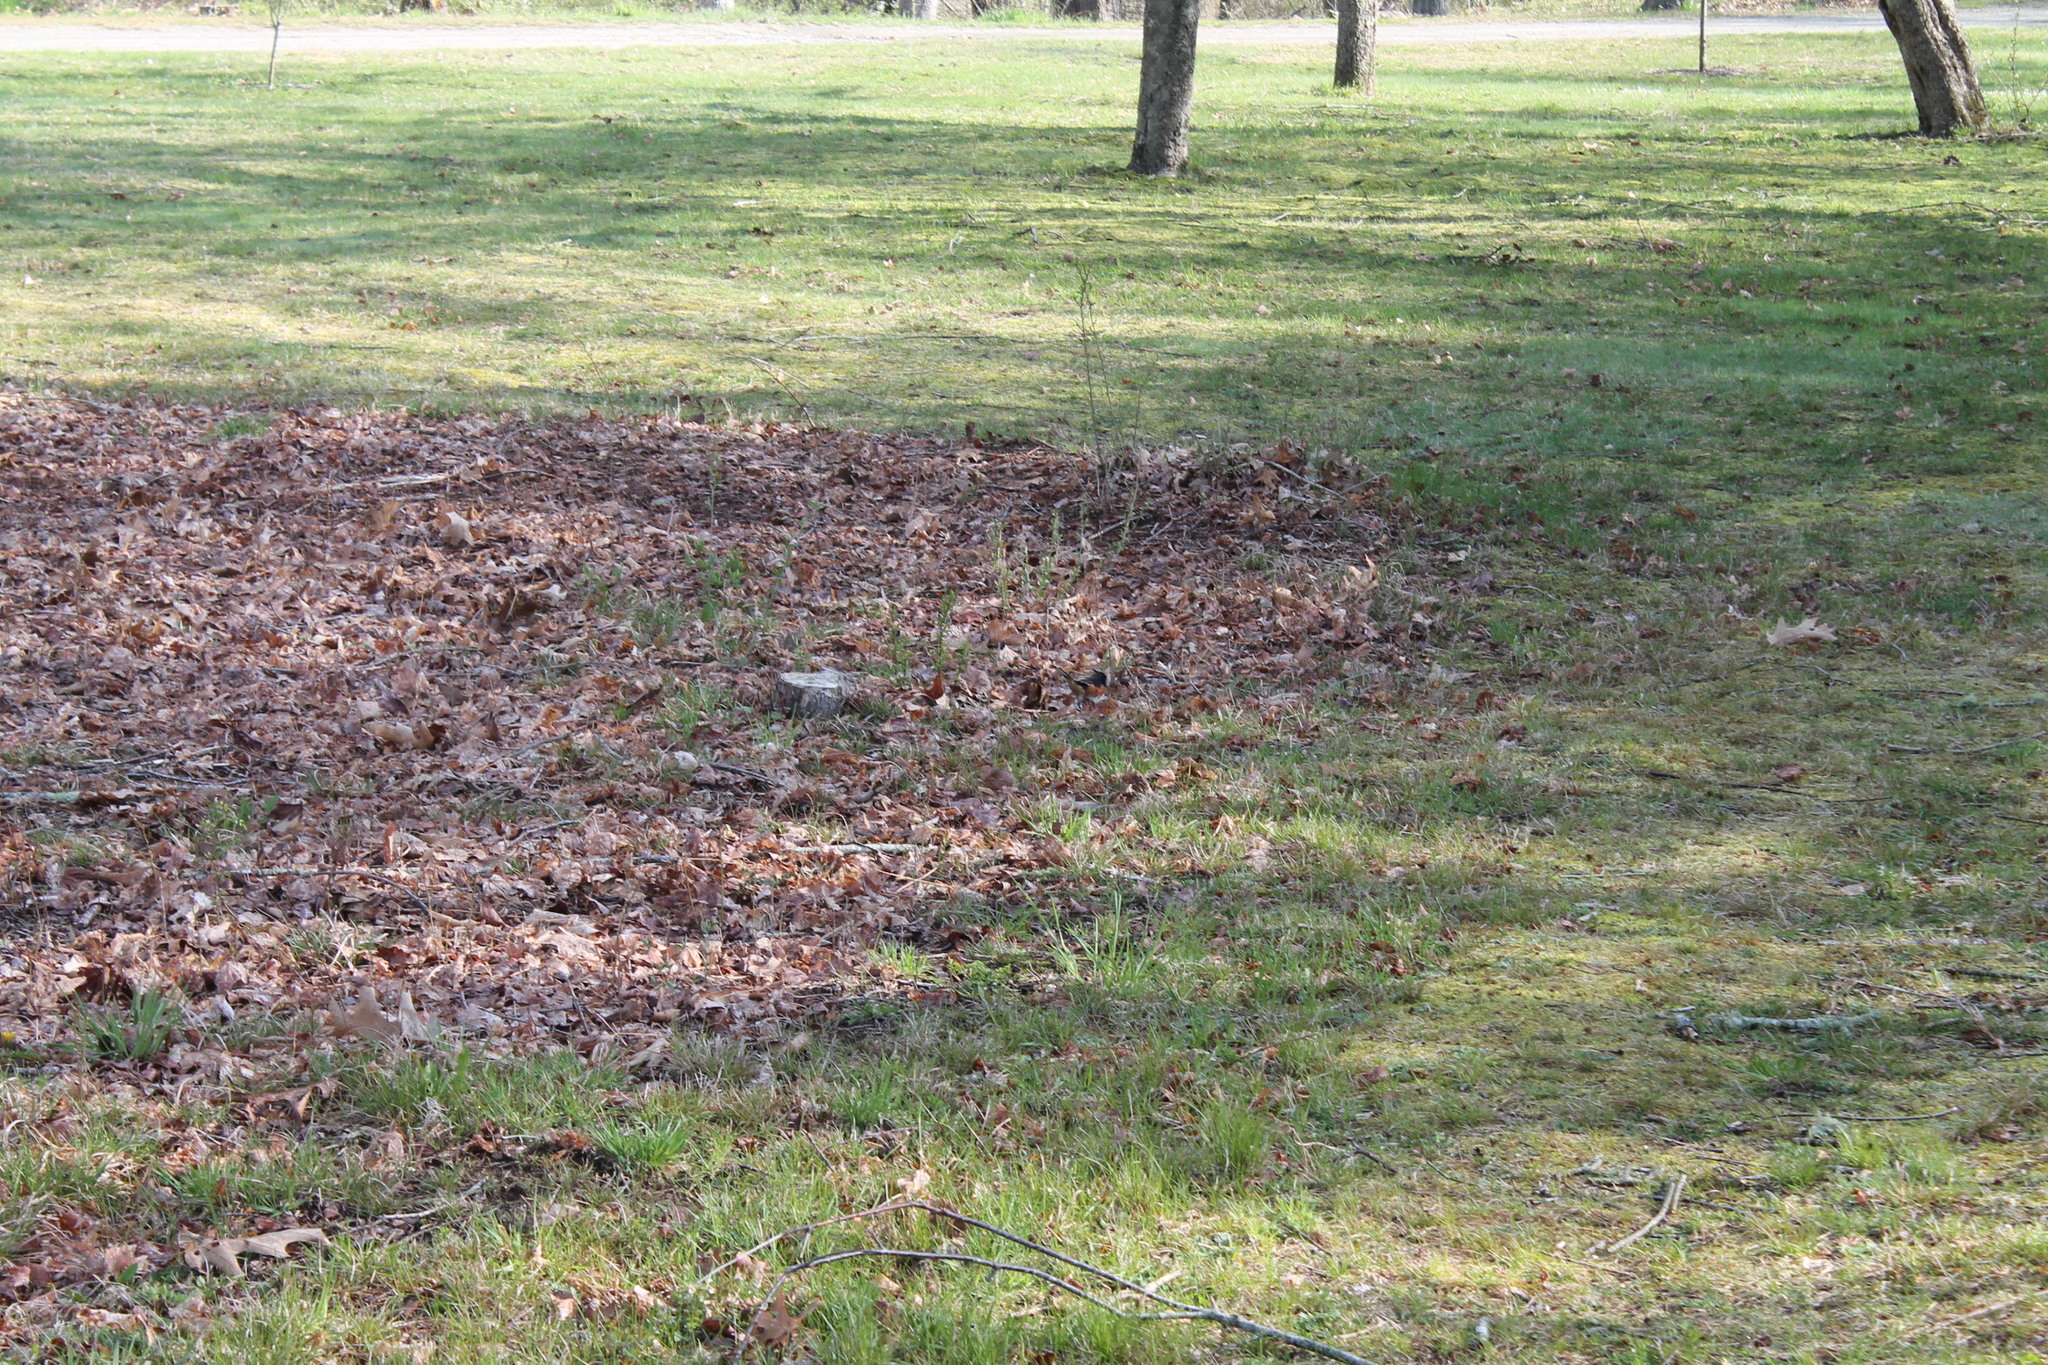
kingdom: Animalia
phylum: Chordata
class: Aves
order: Passeriformes
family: Passerellidae
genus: Pipilo
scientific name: Pipilo erythrophthalmus
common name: Eastern towhee
